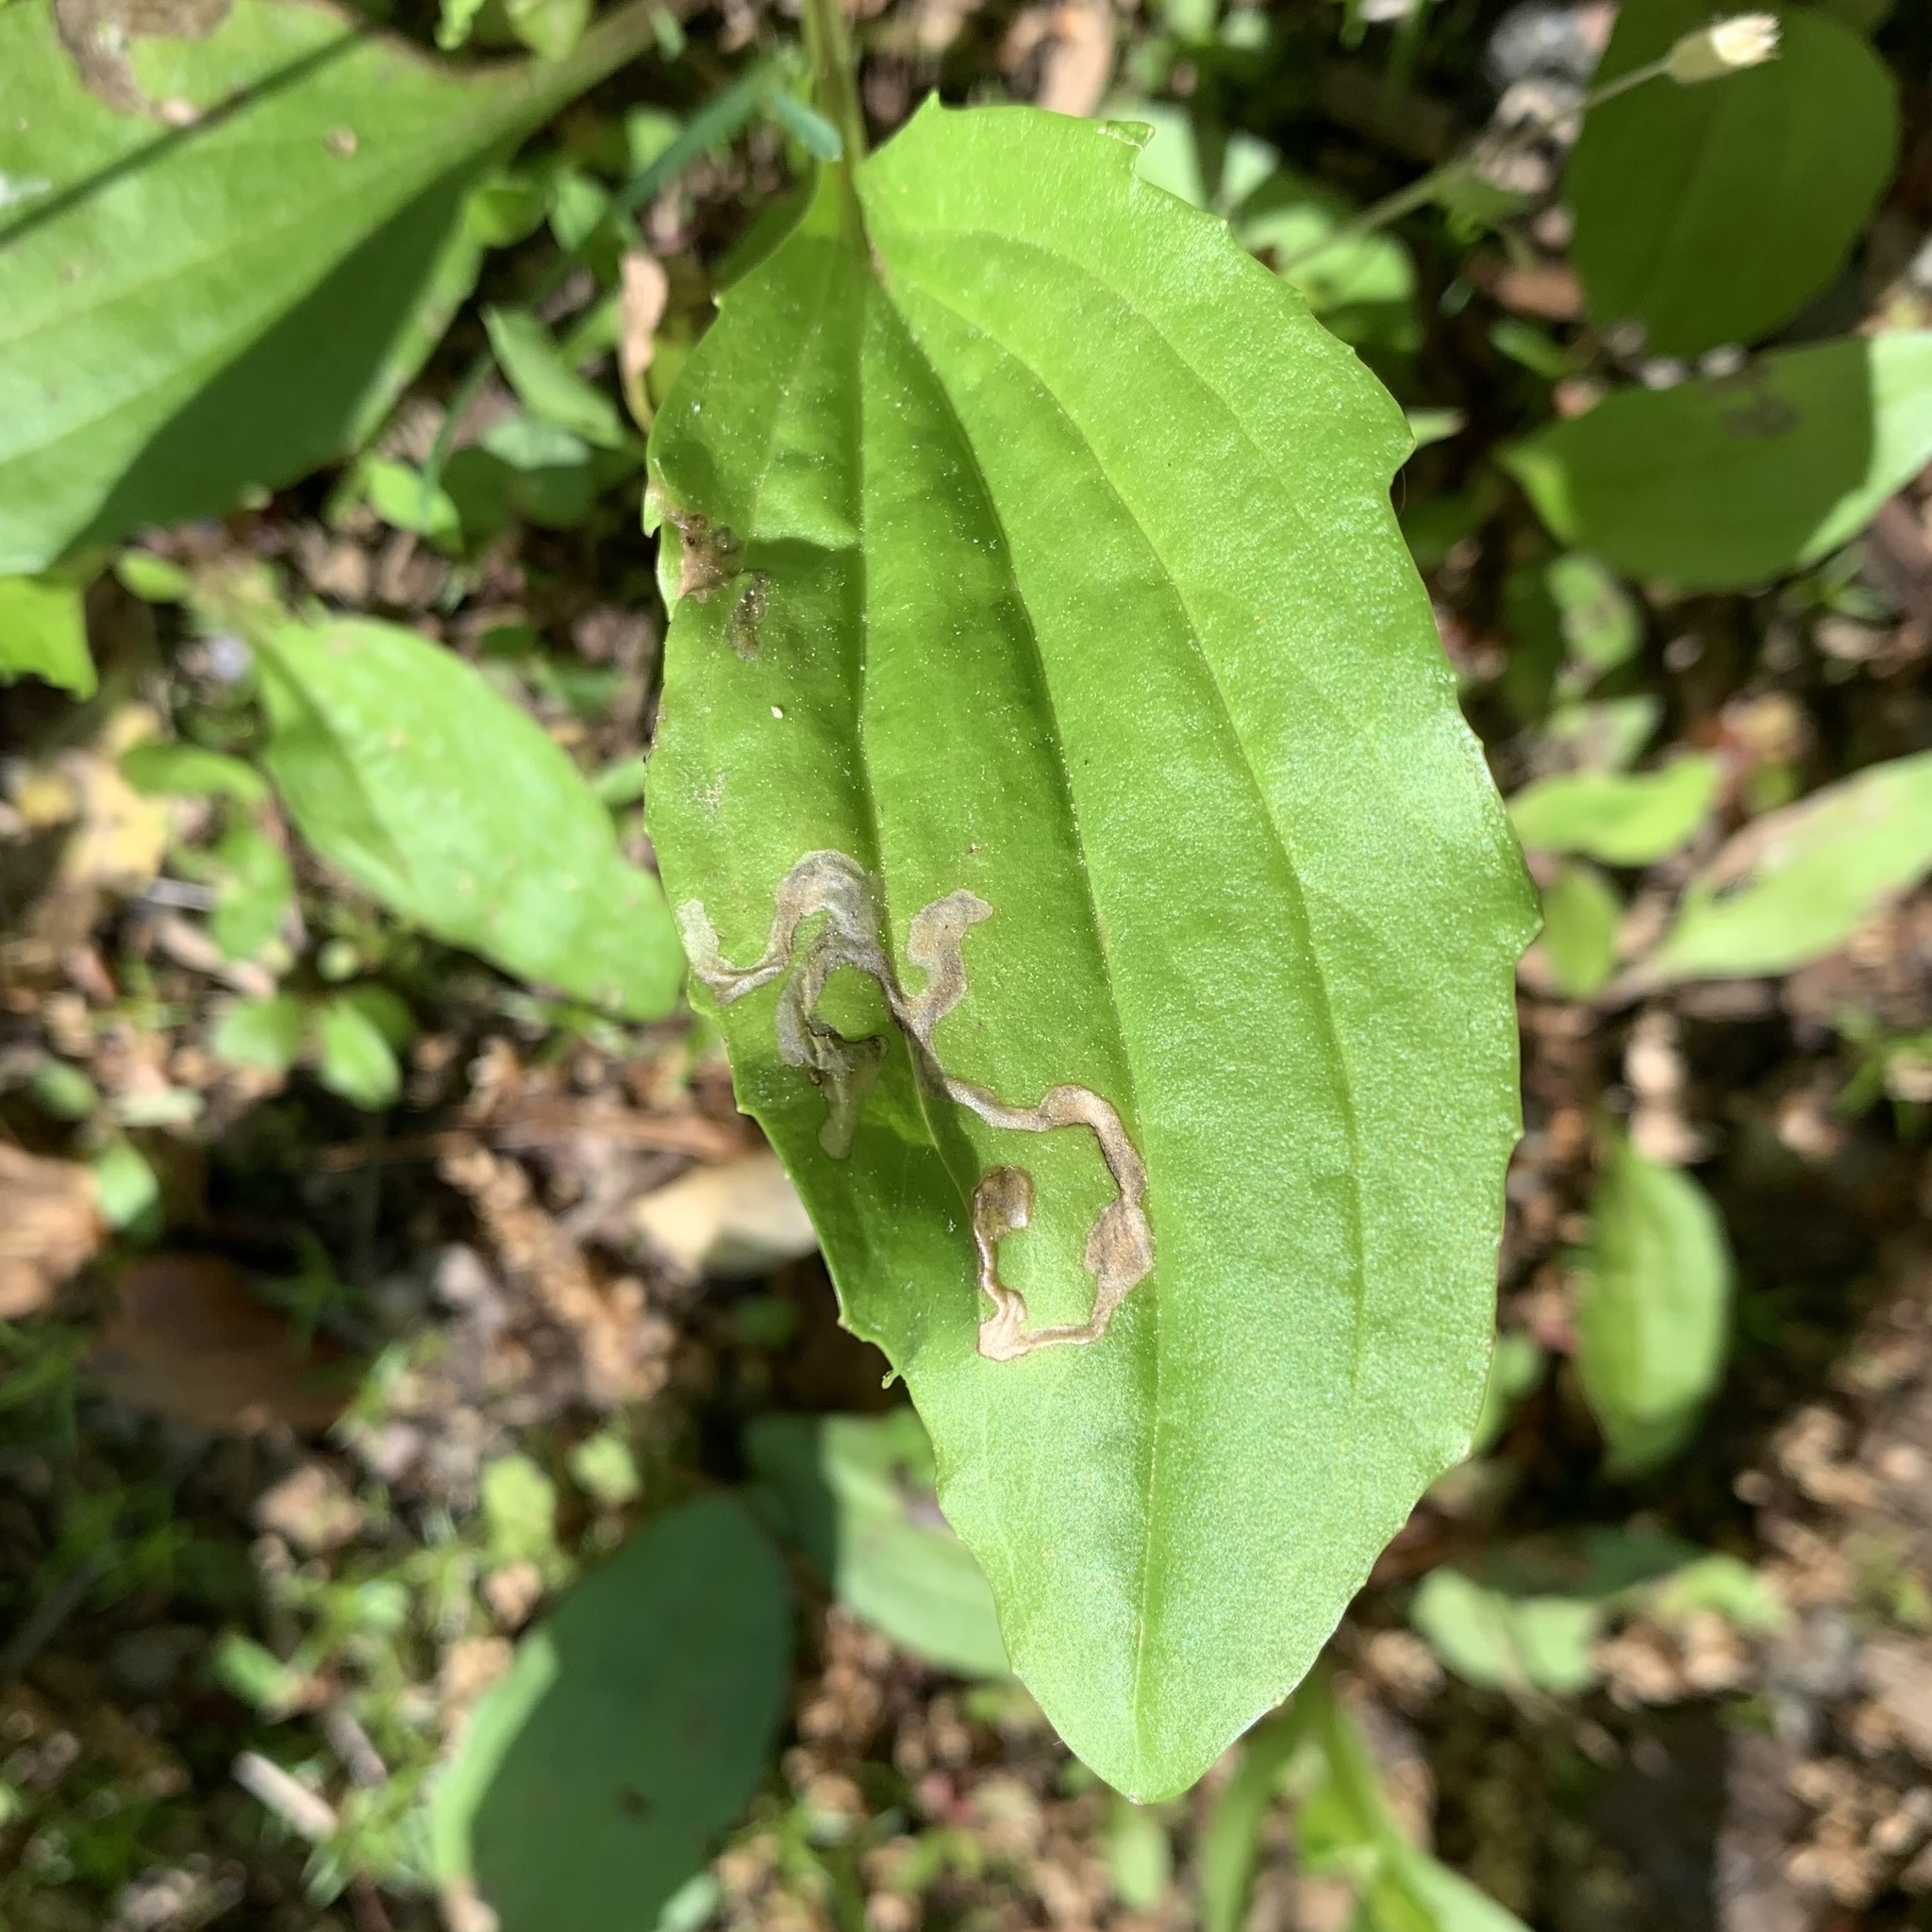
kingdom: Animalia
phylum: Arthropoda
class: Insecta
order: Coleoptera
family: Chrysomelidae
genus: Dibolia
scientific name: Dibolia borealis
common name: Northern plantain flea beetle
